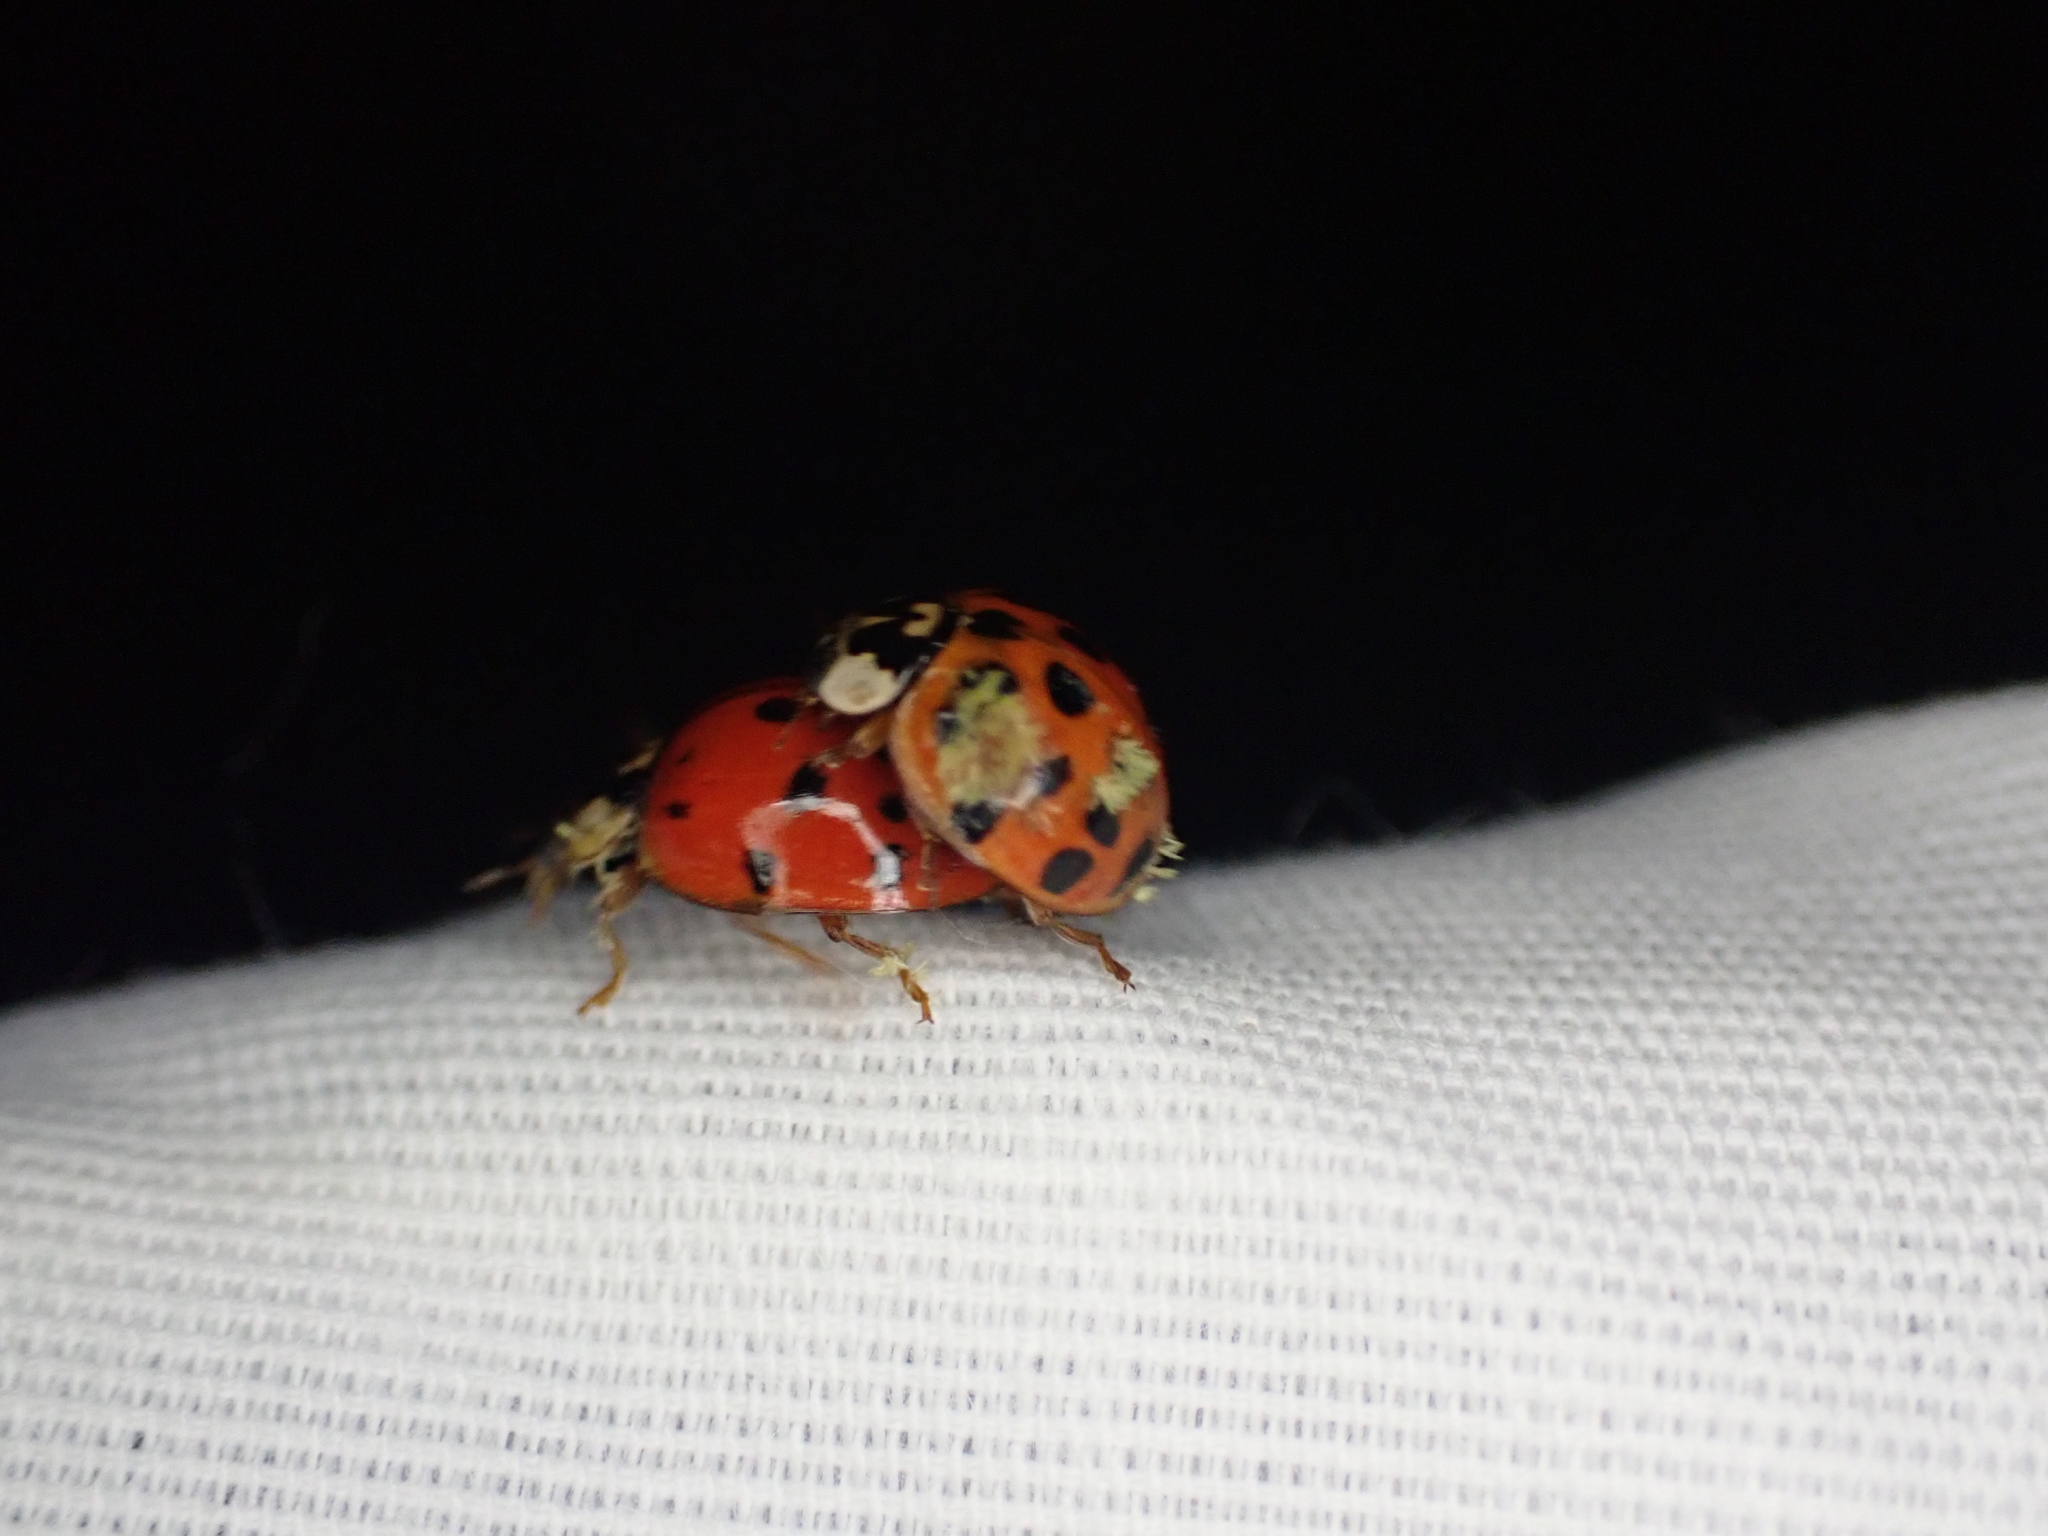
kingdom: Fungi
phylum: Ascomycota
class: Laboulbeniomycetes
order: Laboulbeniales
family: Laboulbeniaceae
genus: Hesperomyces
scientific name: Hesperomyces harmoniae
